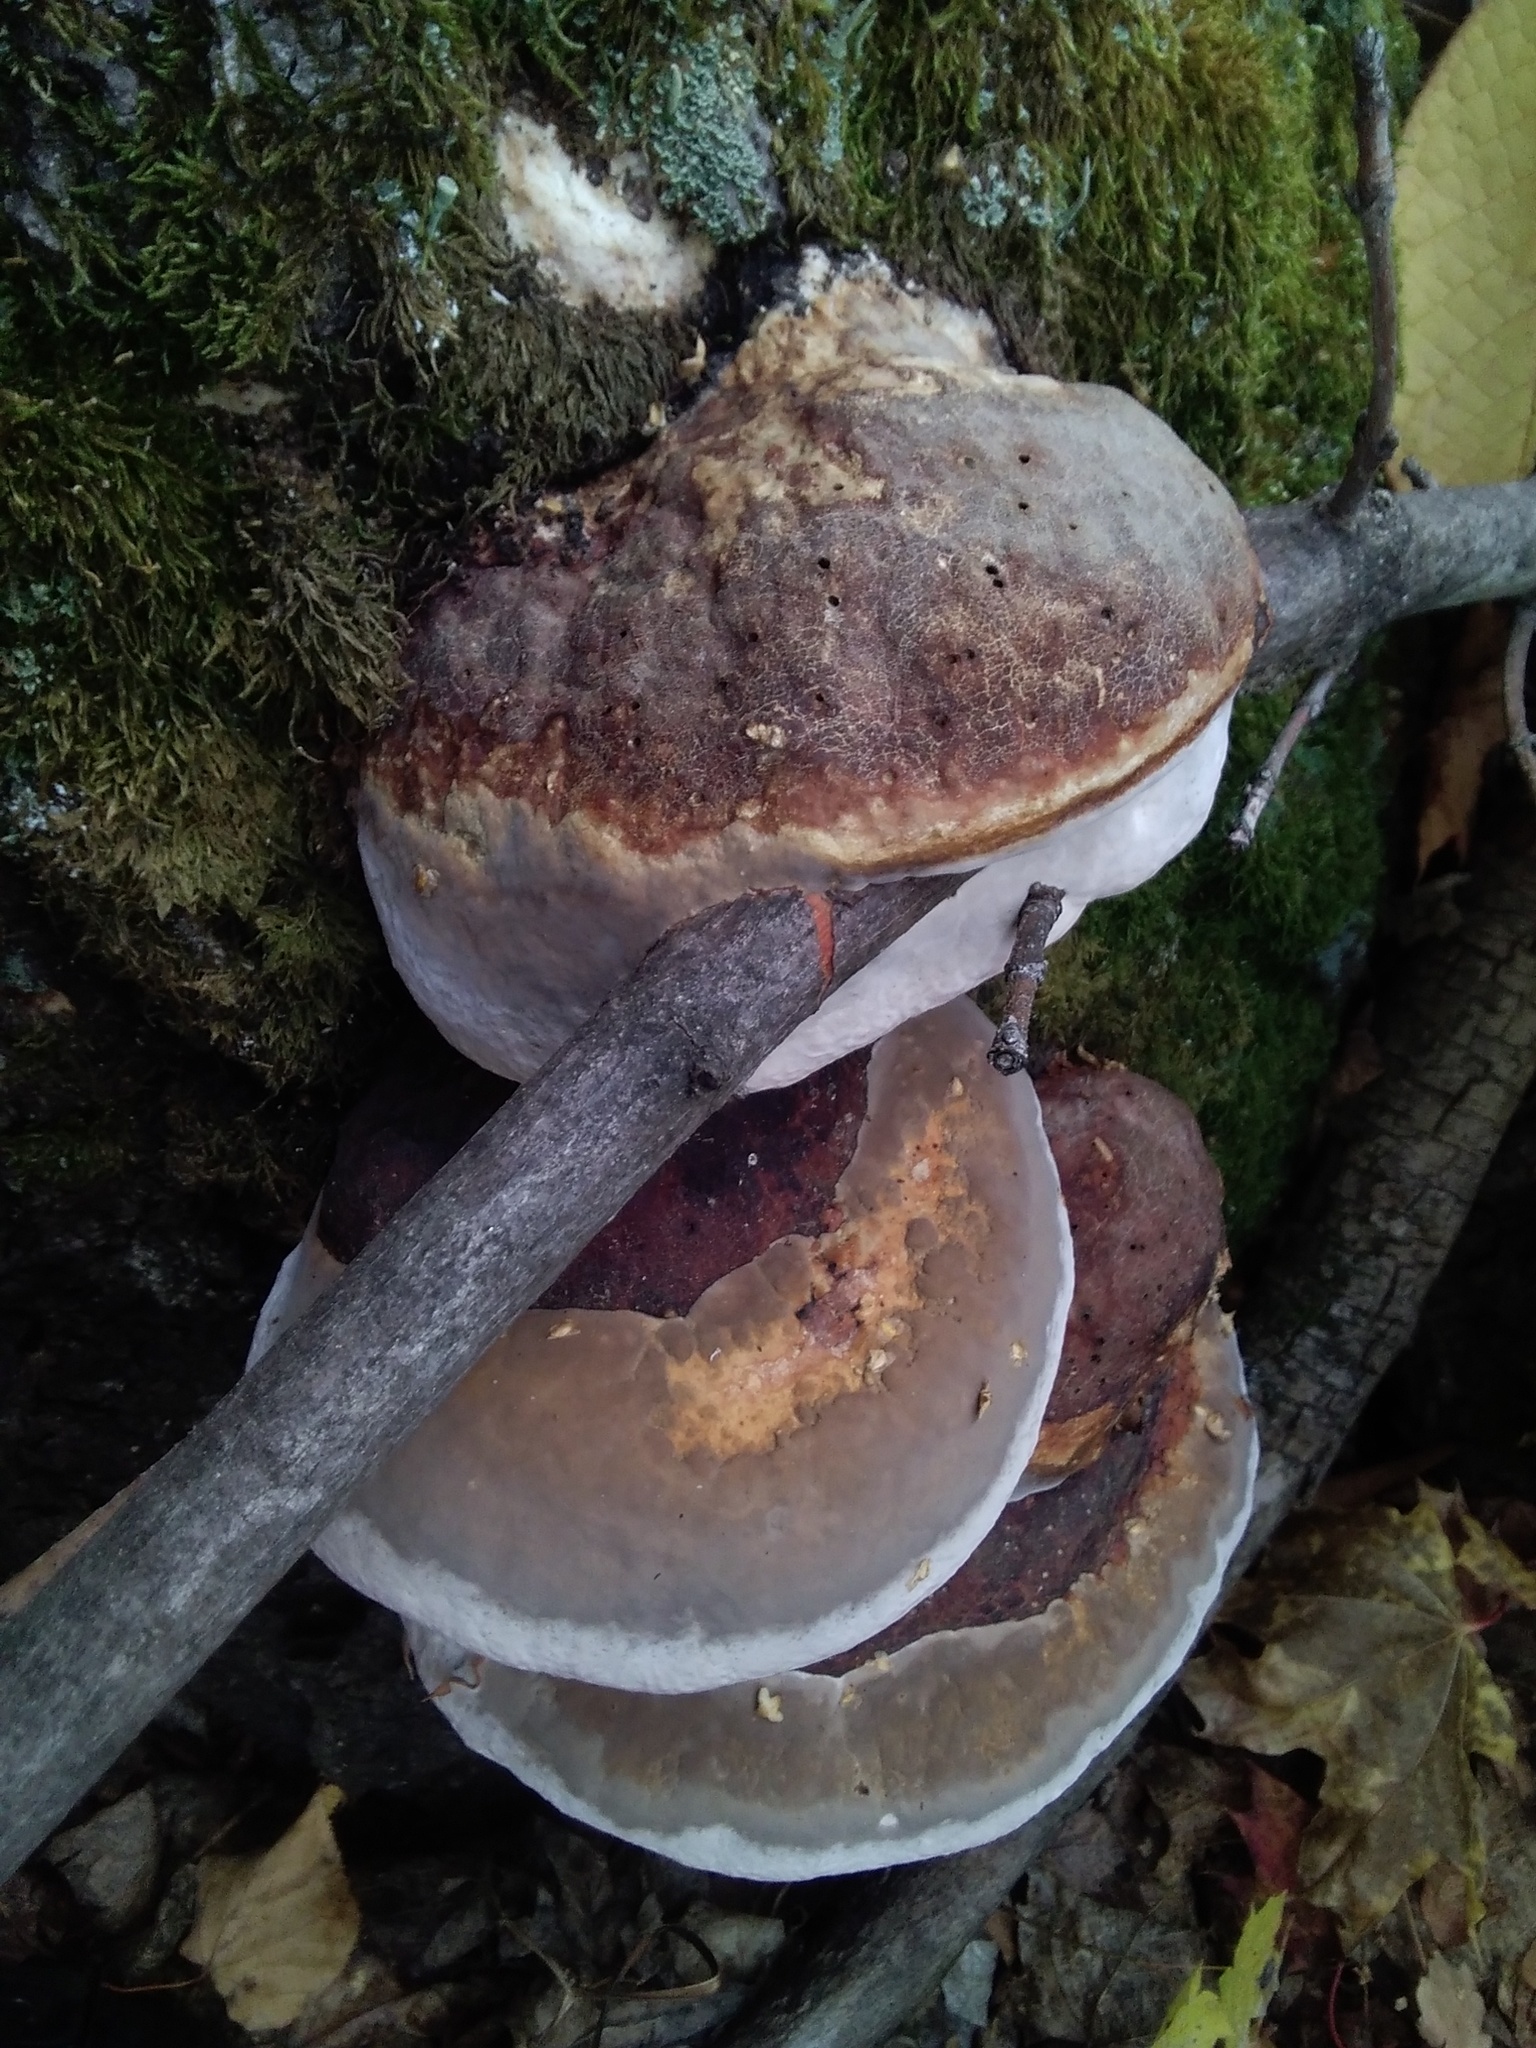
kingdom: Fungi
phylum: Basidiomycota
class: Agaricomycetes
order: Polyporales
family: Fomitopsidaceae
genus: Fomitopsis
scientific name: Fomitopsis pinicola
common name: Red-belted bracket
